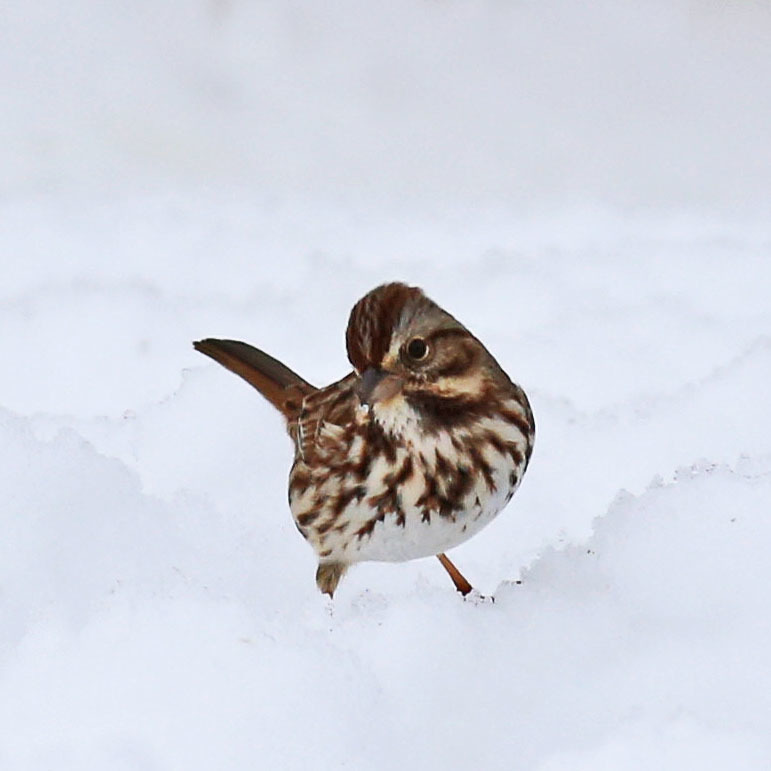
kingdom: Animalia
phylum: Chordata
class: Aves
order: Passeriformes
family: Passerellidae
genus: Melospiza
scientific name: Melospiza melodia
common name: Song sparrow
